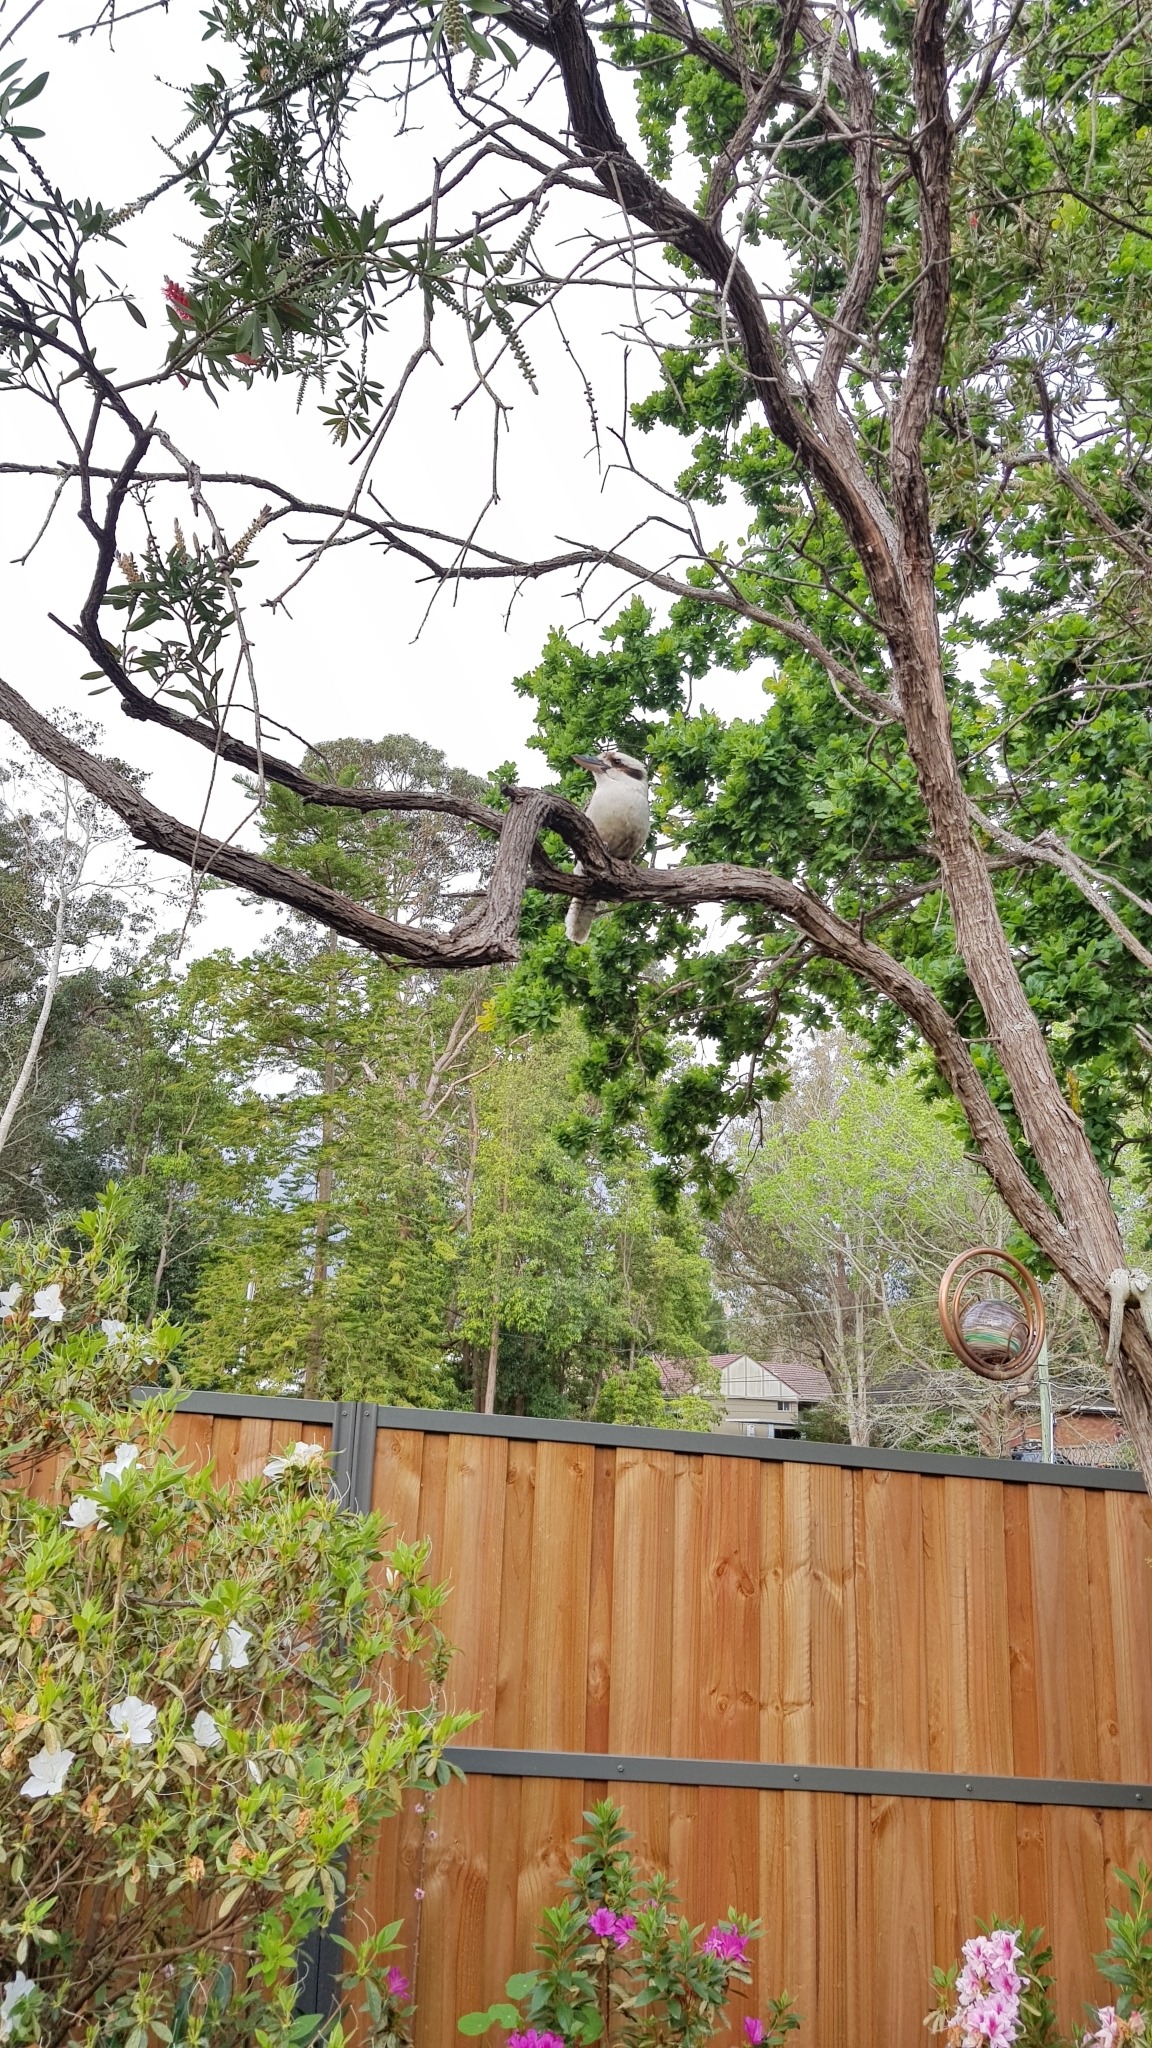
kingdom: Animalia
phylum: Chordata
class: Aves
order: Coraciiformes
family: Alcedinidae
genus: Dacelo
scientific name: Dacelo novaeguineae
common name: Laughing kookaburra
